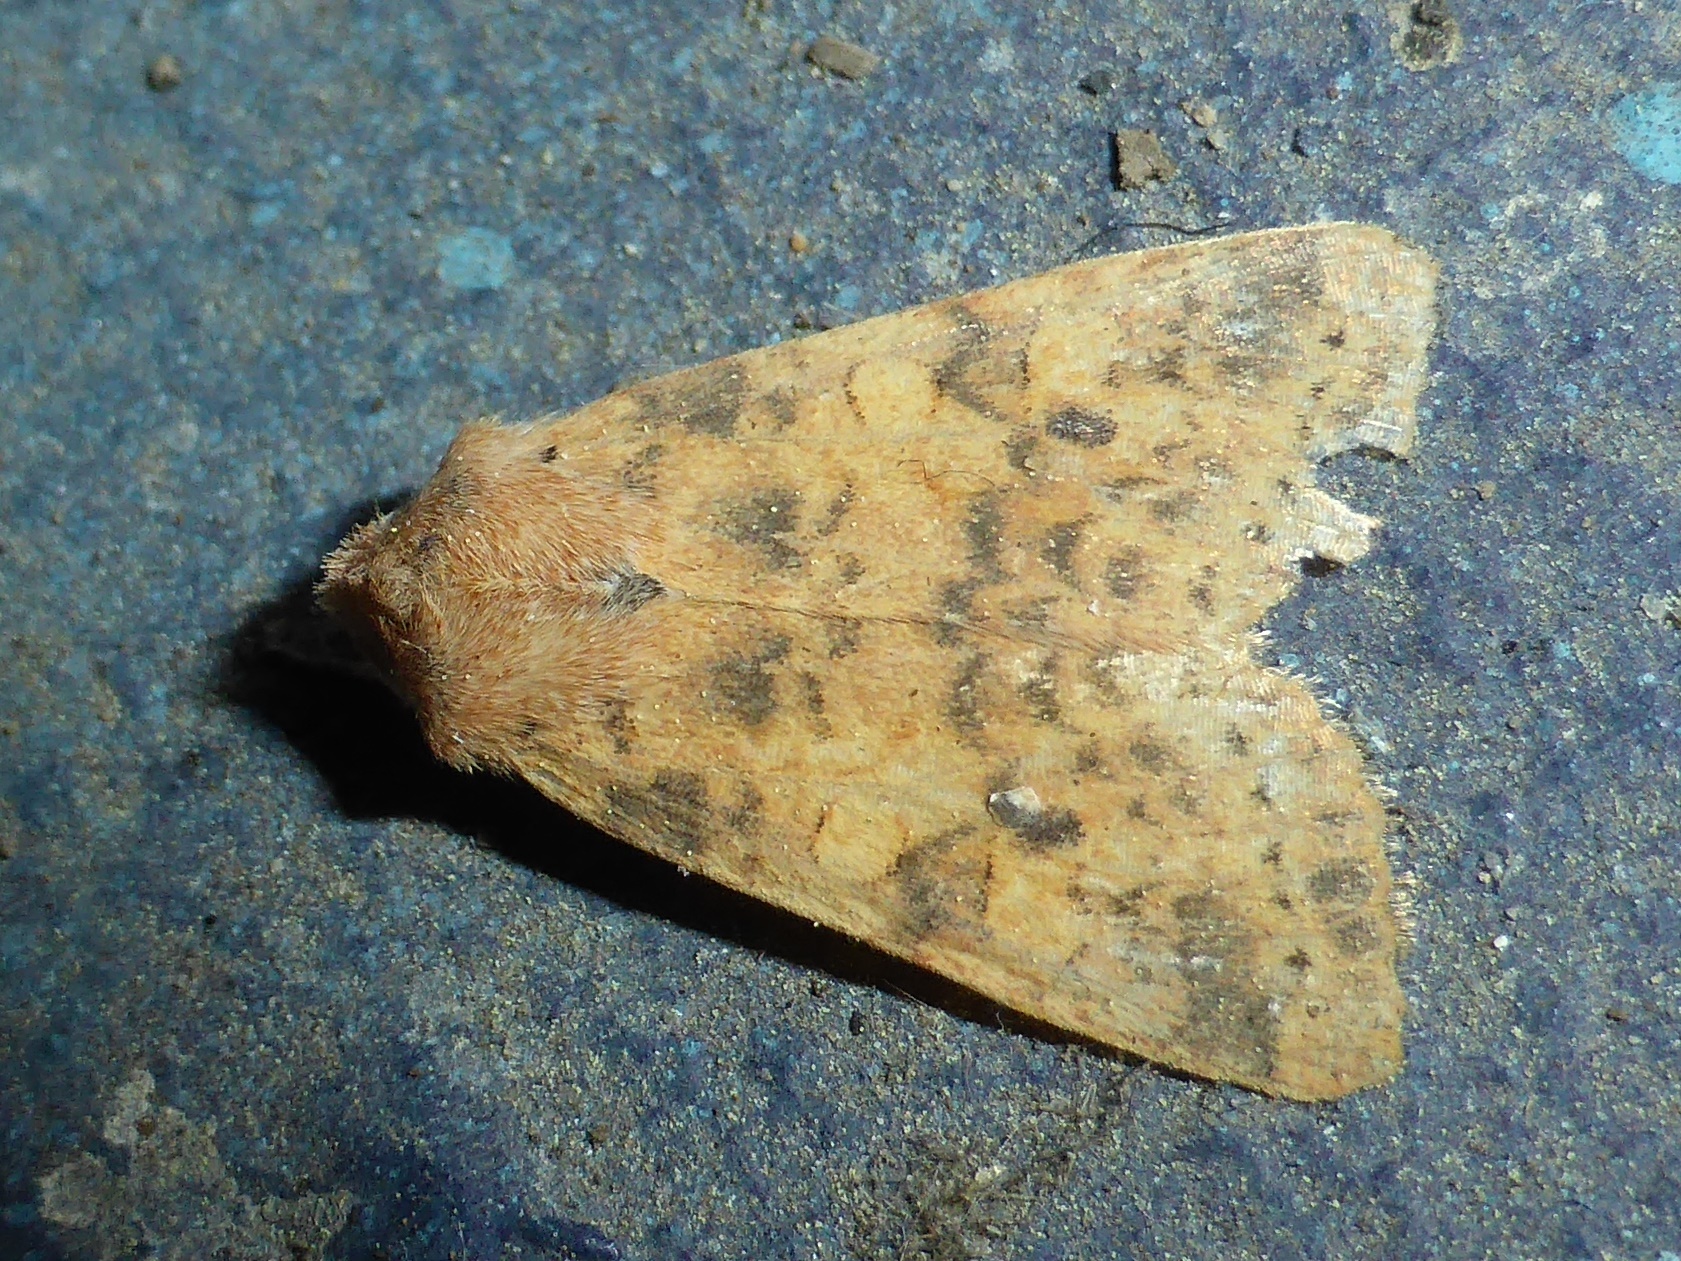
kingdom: Animalia
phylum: Arthropoda
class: Insecta
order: Lepidoptera
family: Noctuidae
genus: Xanthia
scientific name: Xanthia gilvago
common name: Dusky-lemon sallow
